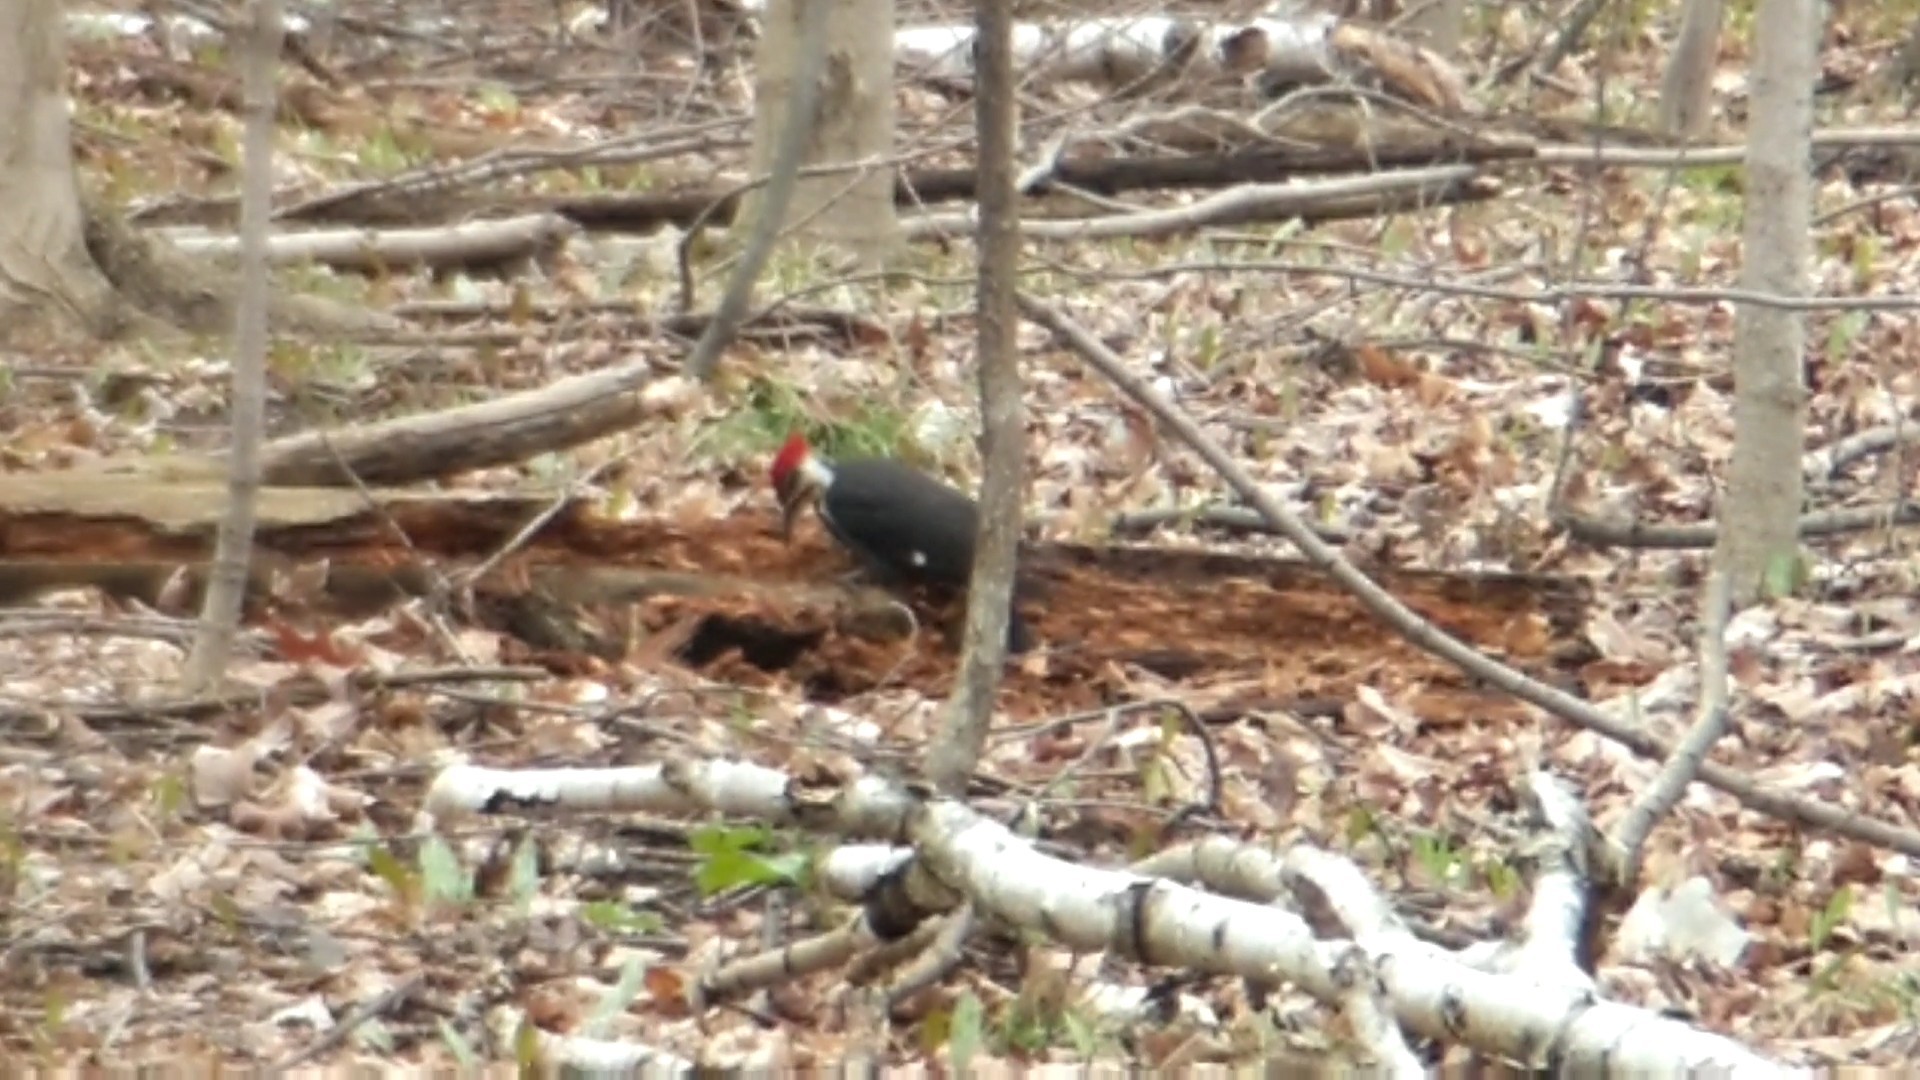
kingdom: Animalia
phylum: Chordata
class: Aves
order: Piciformes
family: Picidae
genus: Dryocopus
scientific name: Dryocopus pileatus
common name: Pileated woodpecker
